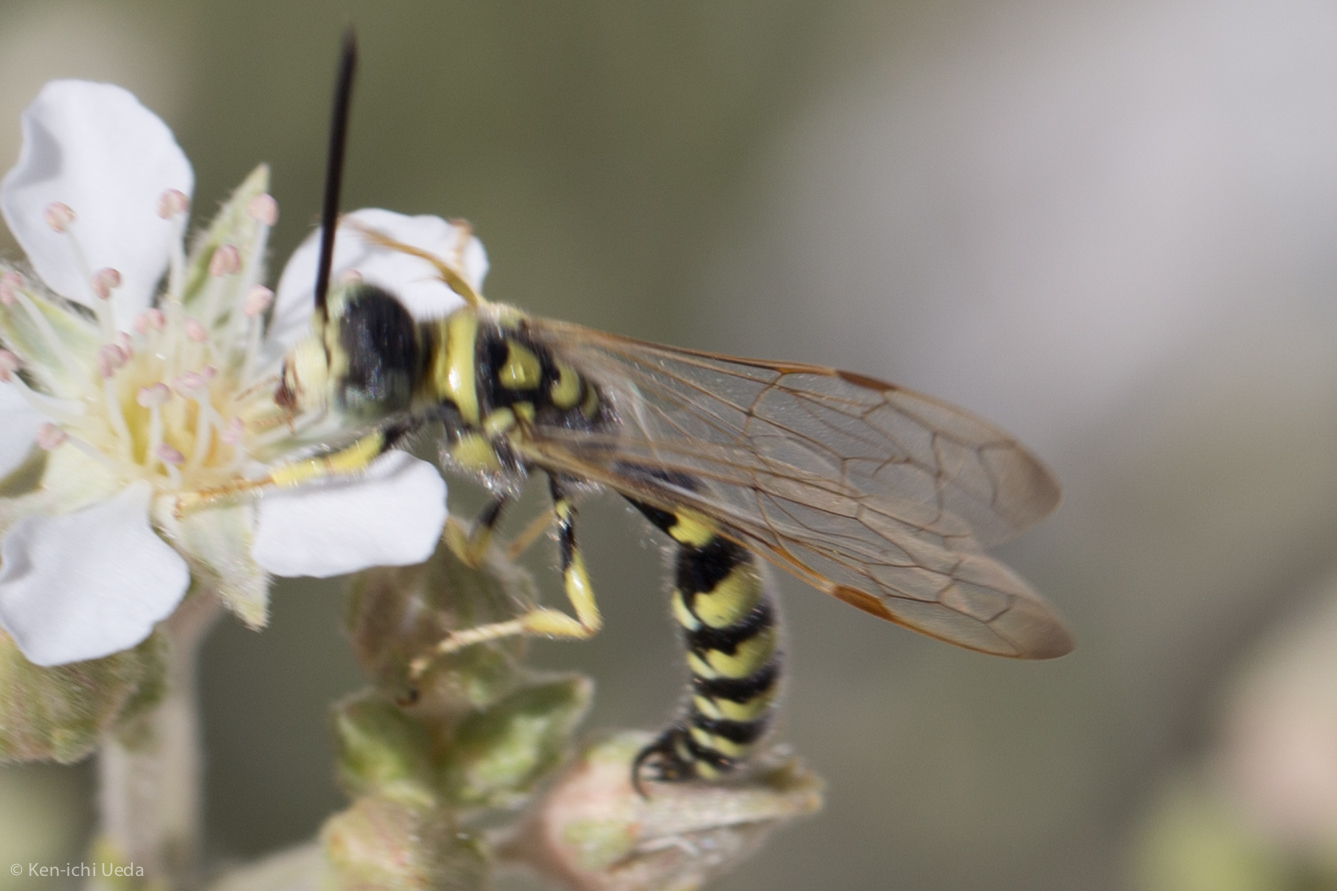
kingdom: Animalia
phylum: Arthropoda
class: Insecta
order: Hymenoptera
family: Tiphiidae
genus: Myzinum
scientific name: Myzinum frontalis
